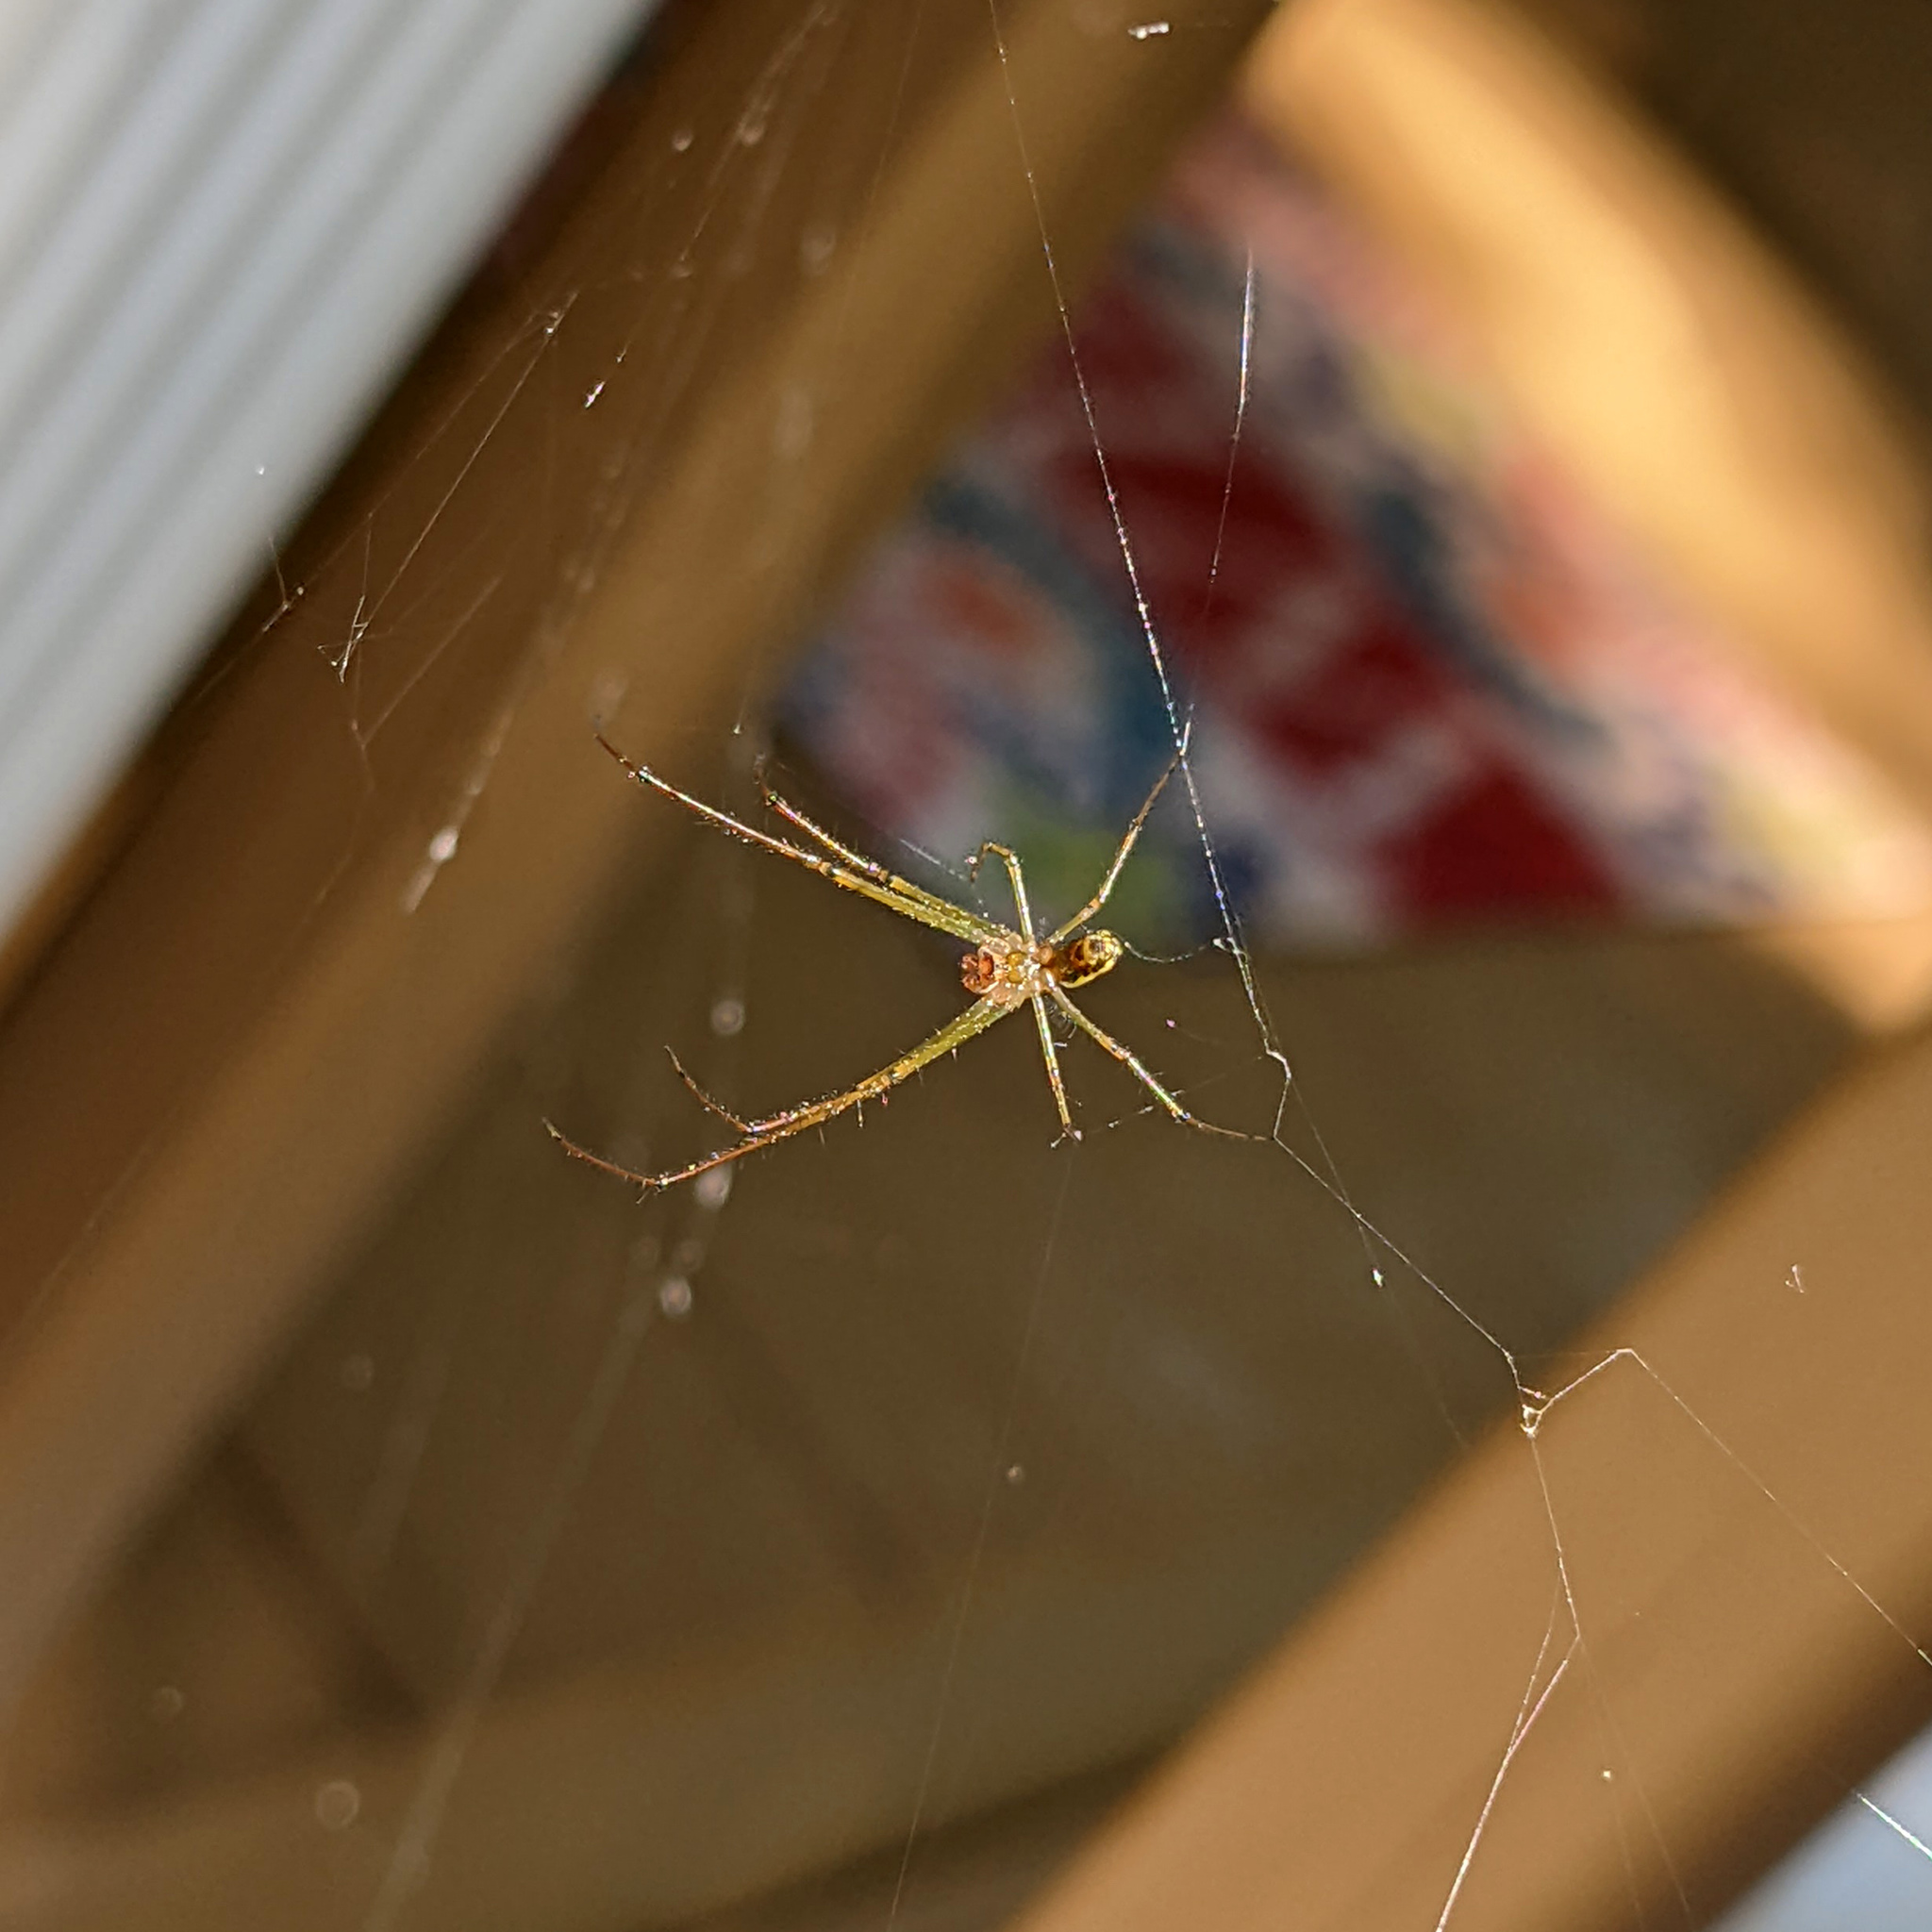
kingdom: Animalia
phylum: Arthropoda
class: Arachnida
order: Araneae
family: Tetragnathidae
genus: Leucauge
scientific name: Leucauge venusta
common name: Longjawed orb weavers
